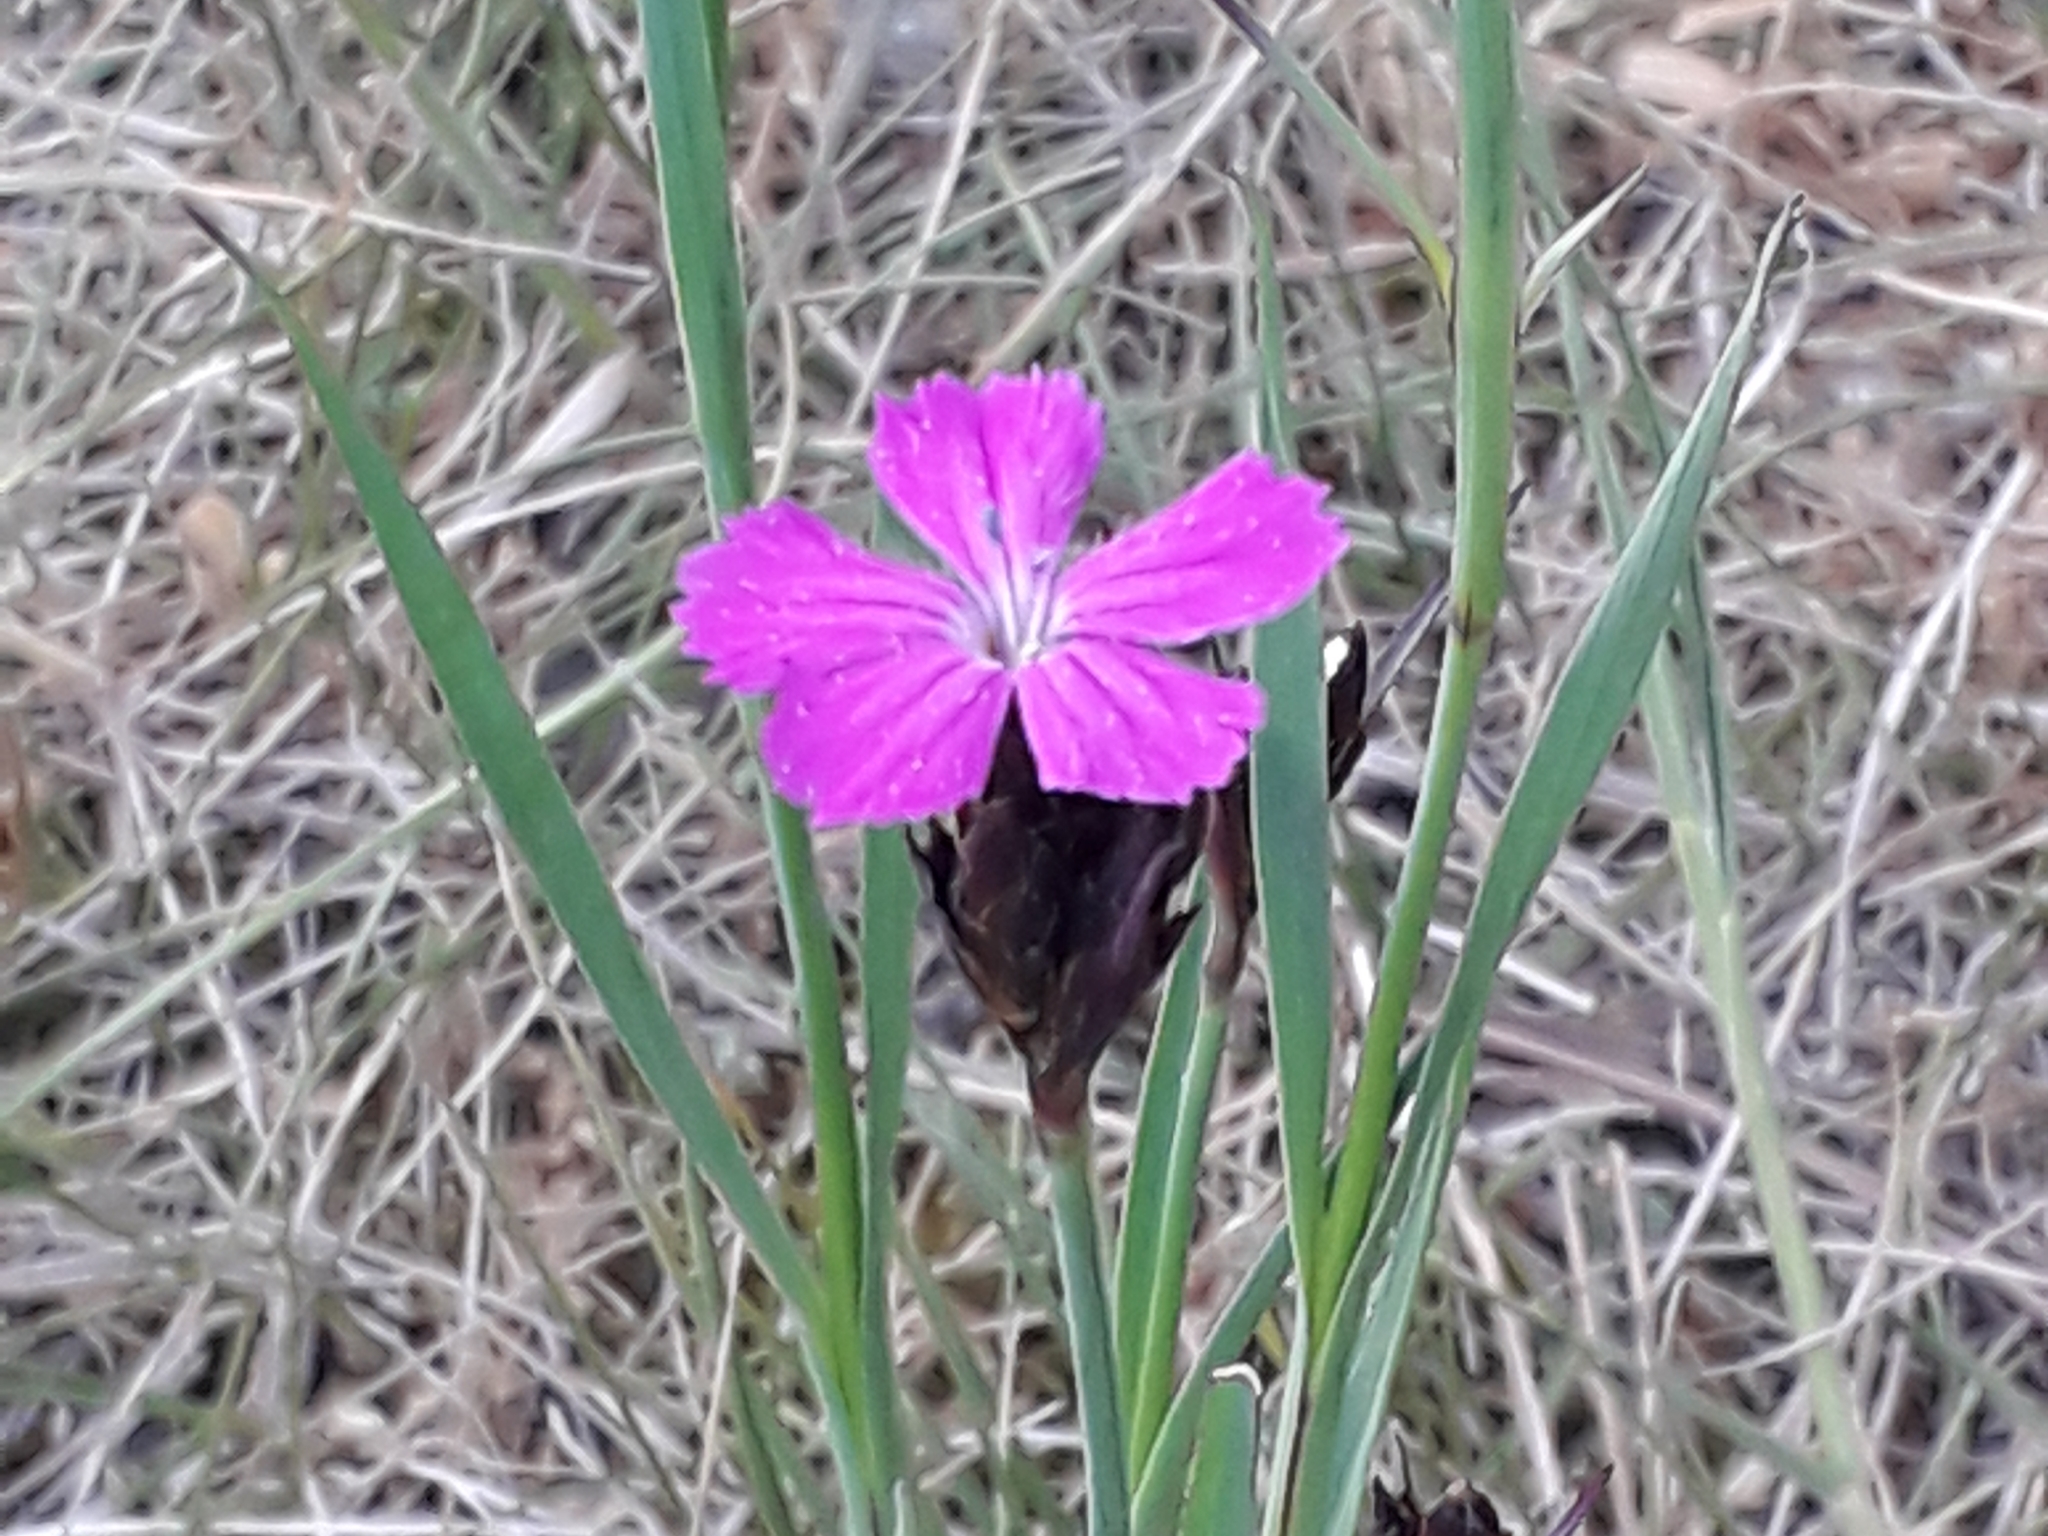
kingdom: Plantae
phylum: Tracheophyta
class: Magnoliopsida
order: Caryophyllales
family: Caryophyllaceae
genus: Dianthus
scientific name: Dianthus carthusianorum
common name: Carthusian pink
